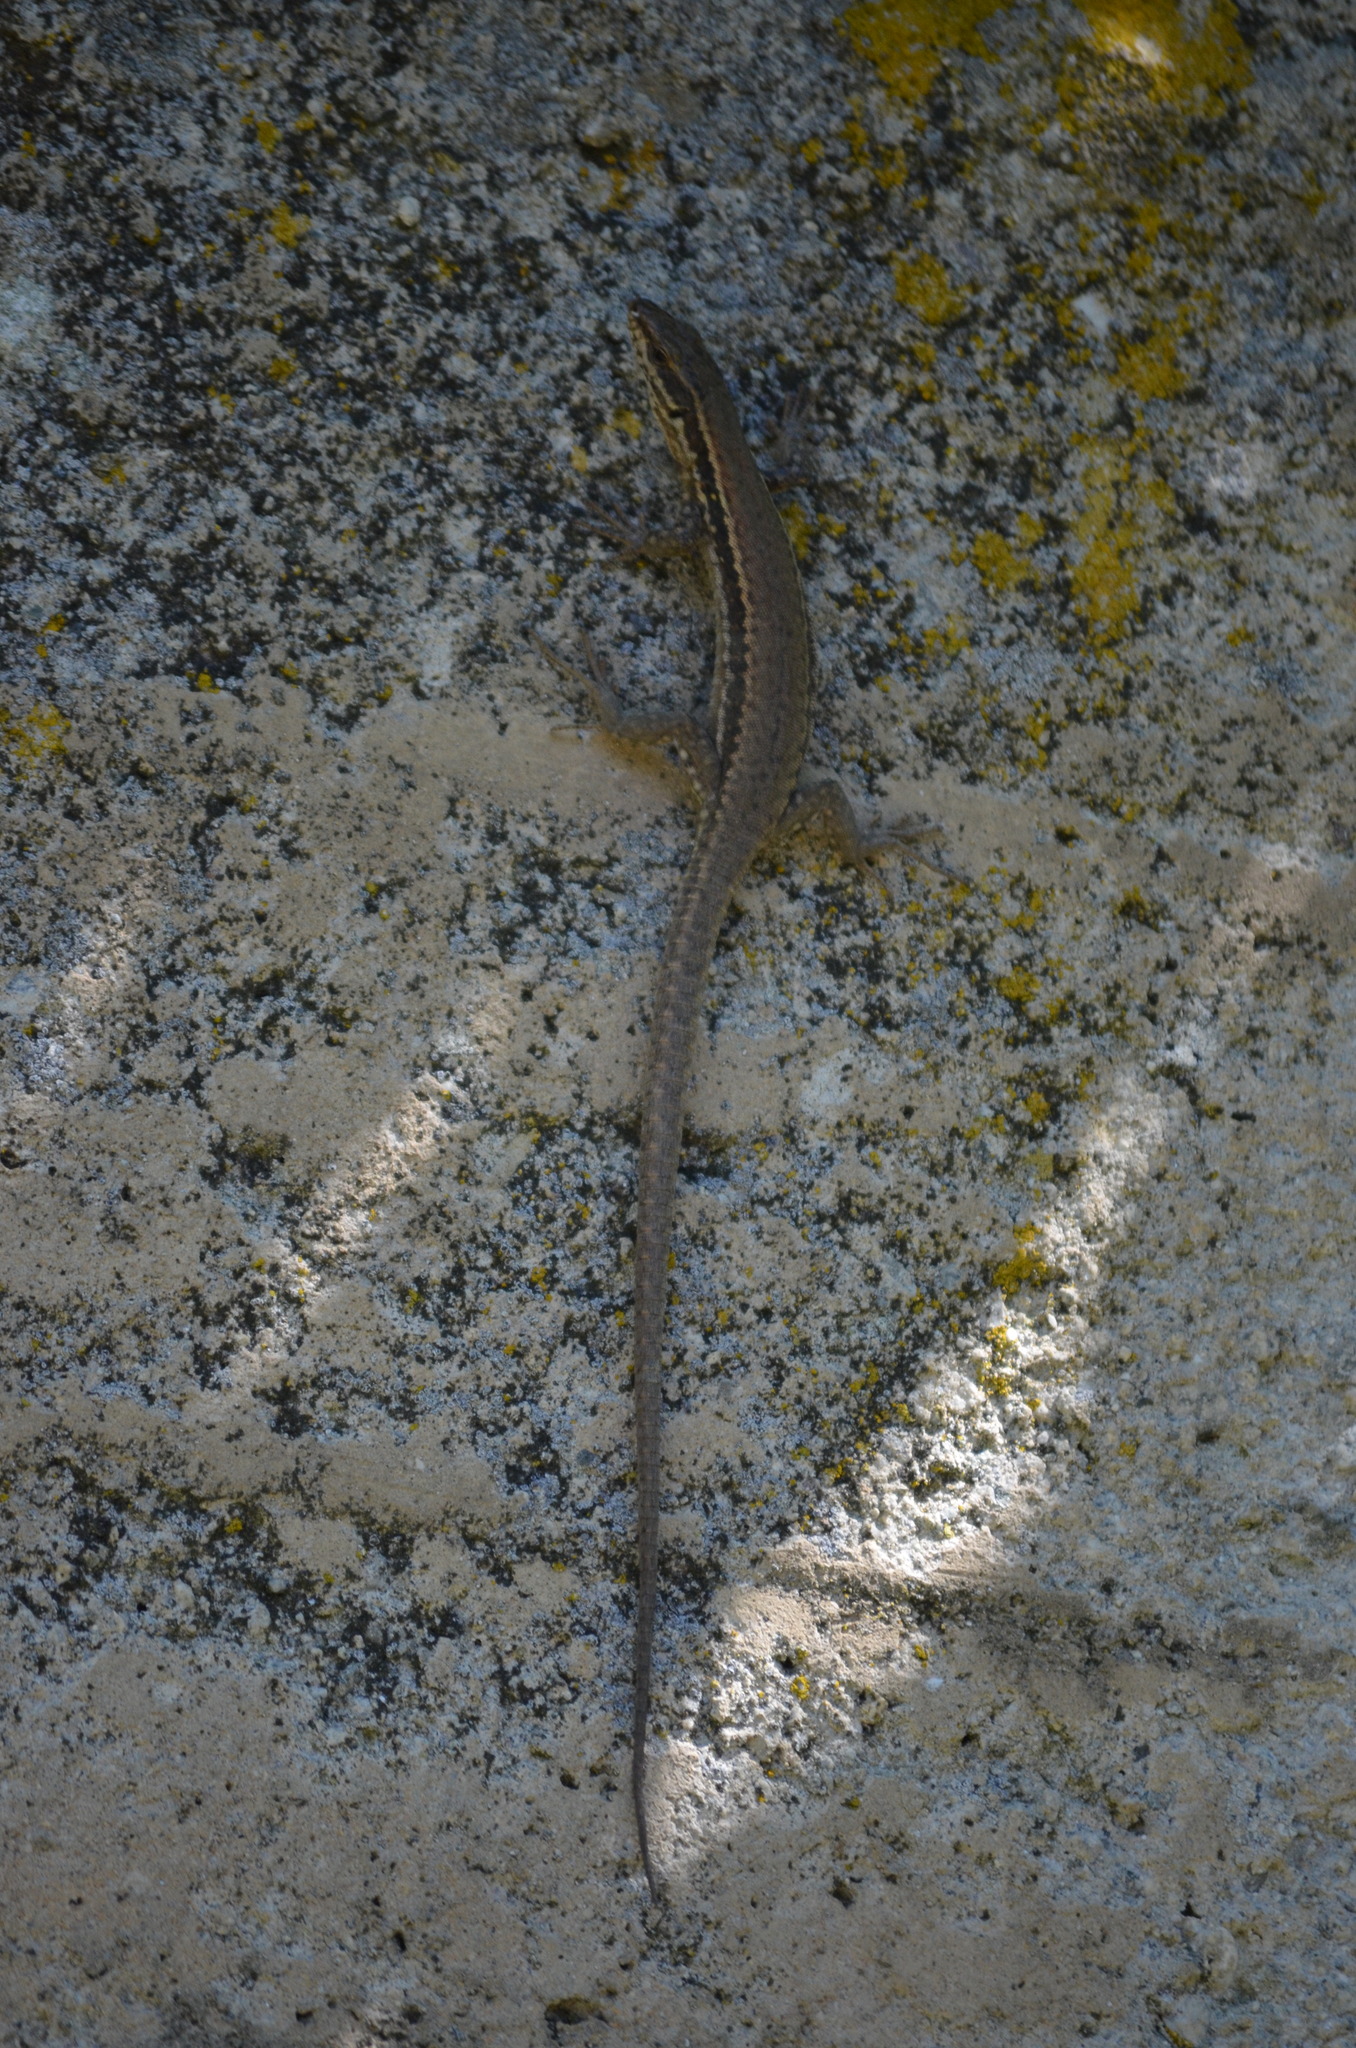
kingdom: Animalia
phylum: Chordata
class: Squamata
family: Lacertidae
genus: Podarcis
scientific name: Podarcis muralis
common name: Common wall lizard
